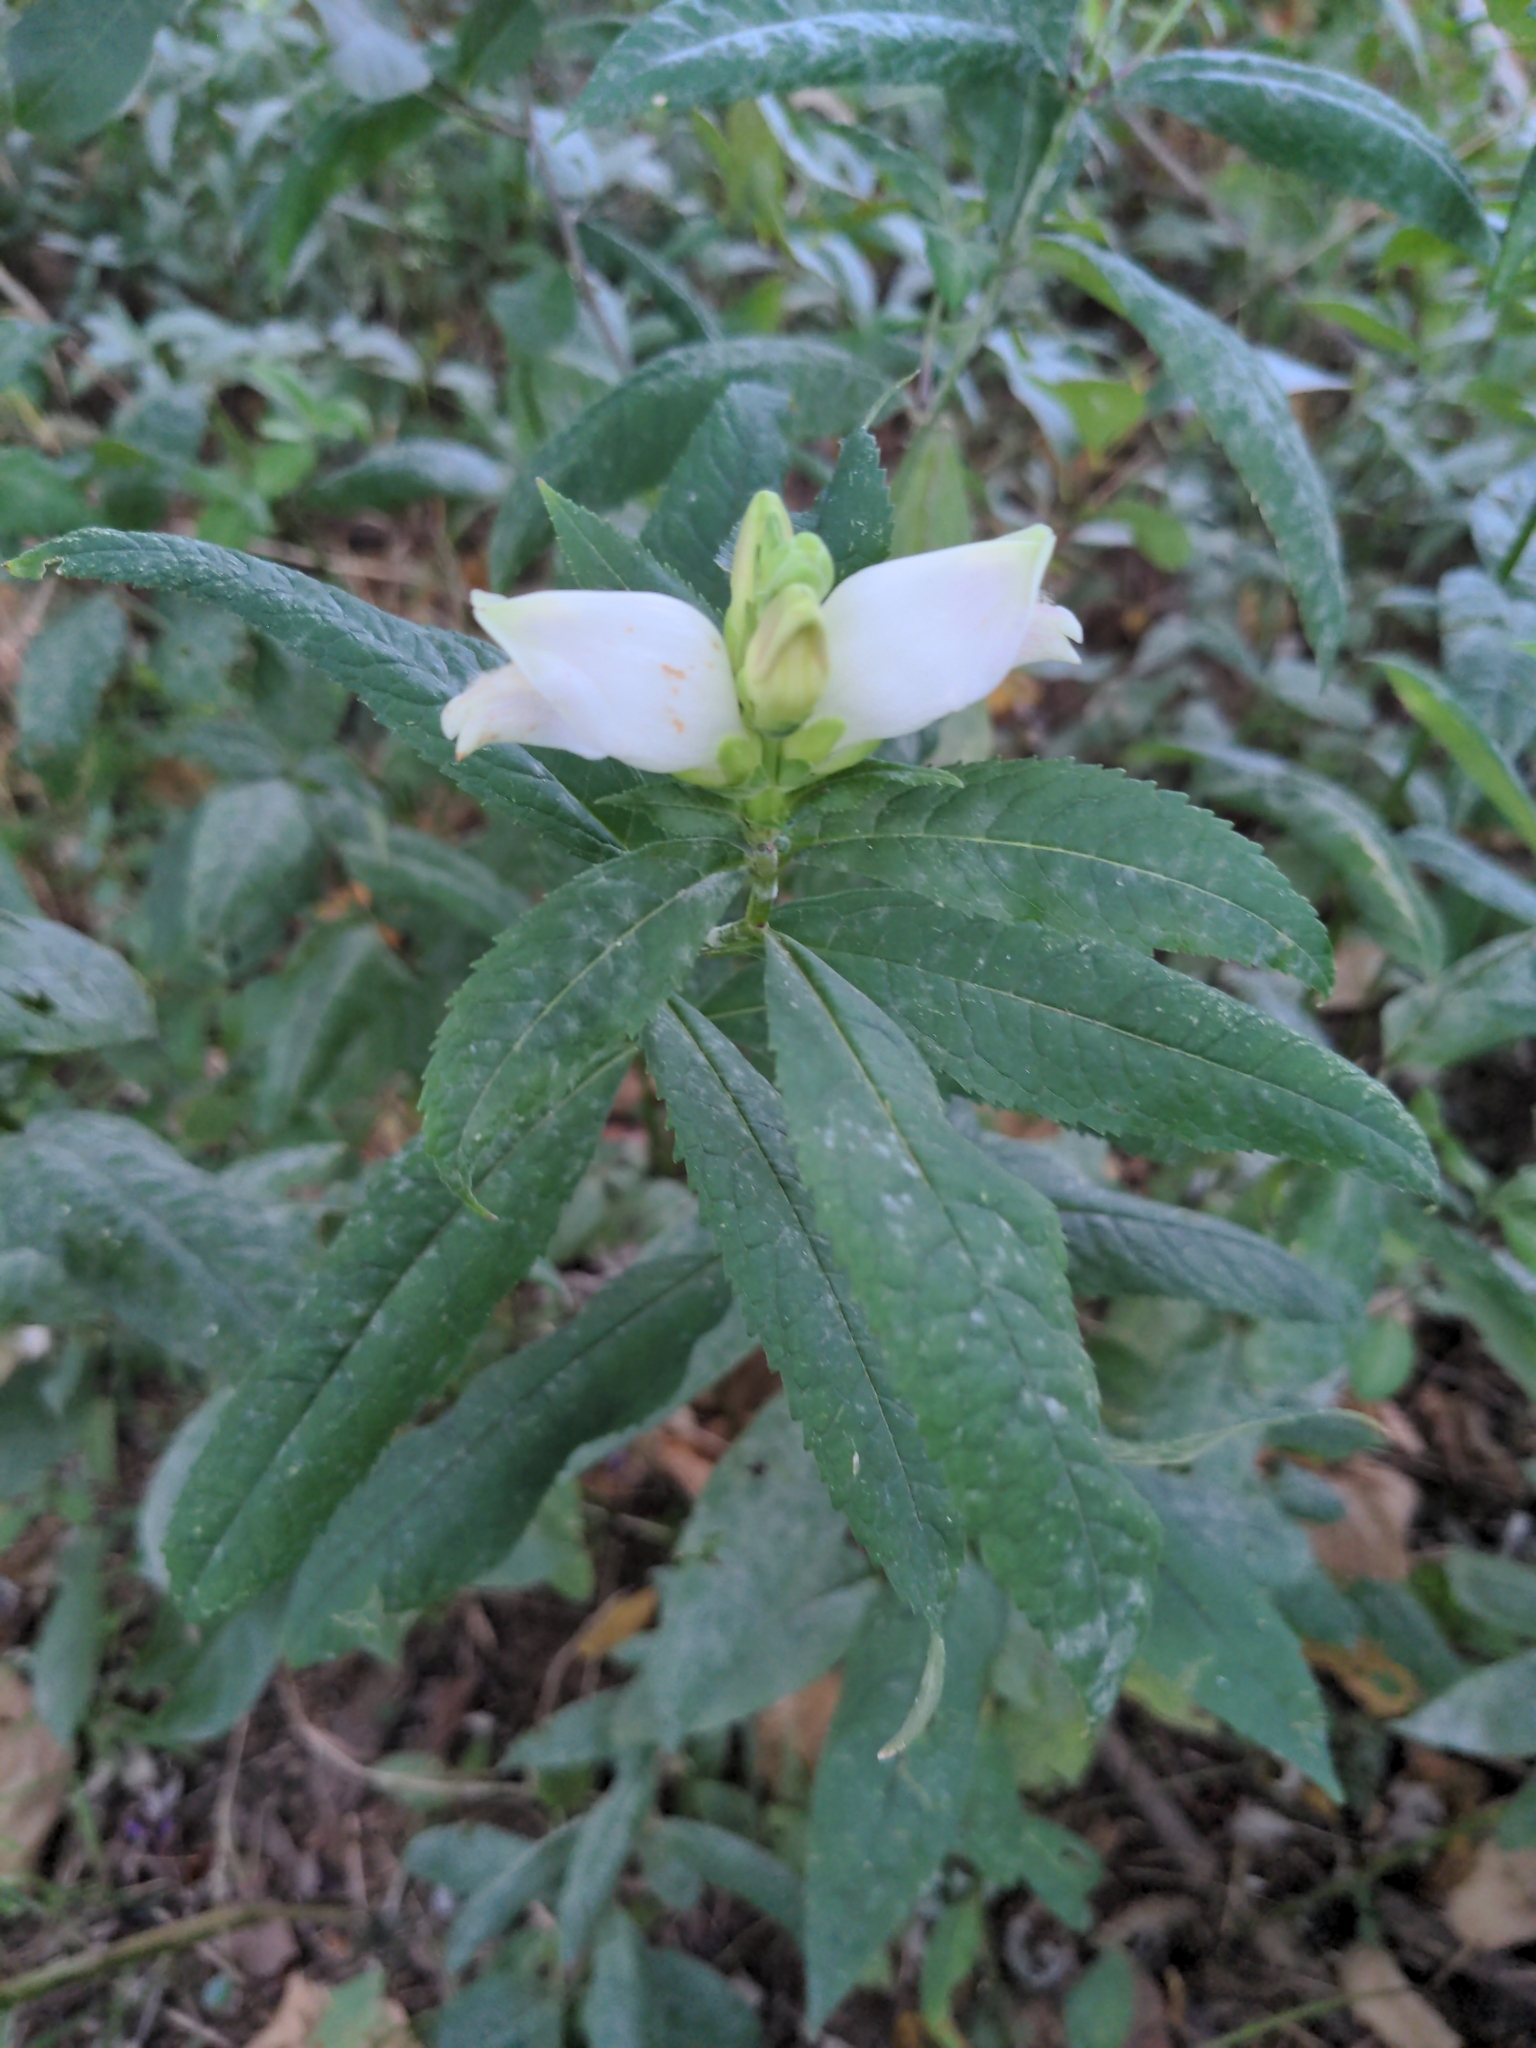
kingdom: Plantae
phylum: Tracheophyta
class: Magnoliopsida
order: Lamiales
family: Plantaginaceae
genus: Chelone
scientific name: Chelone glabra
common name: Snakehead
